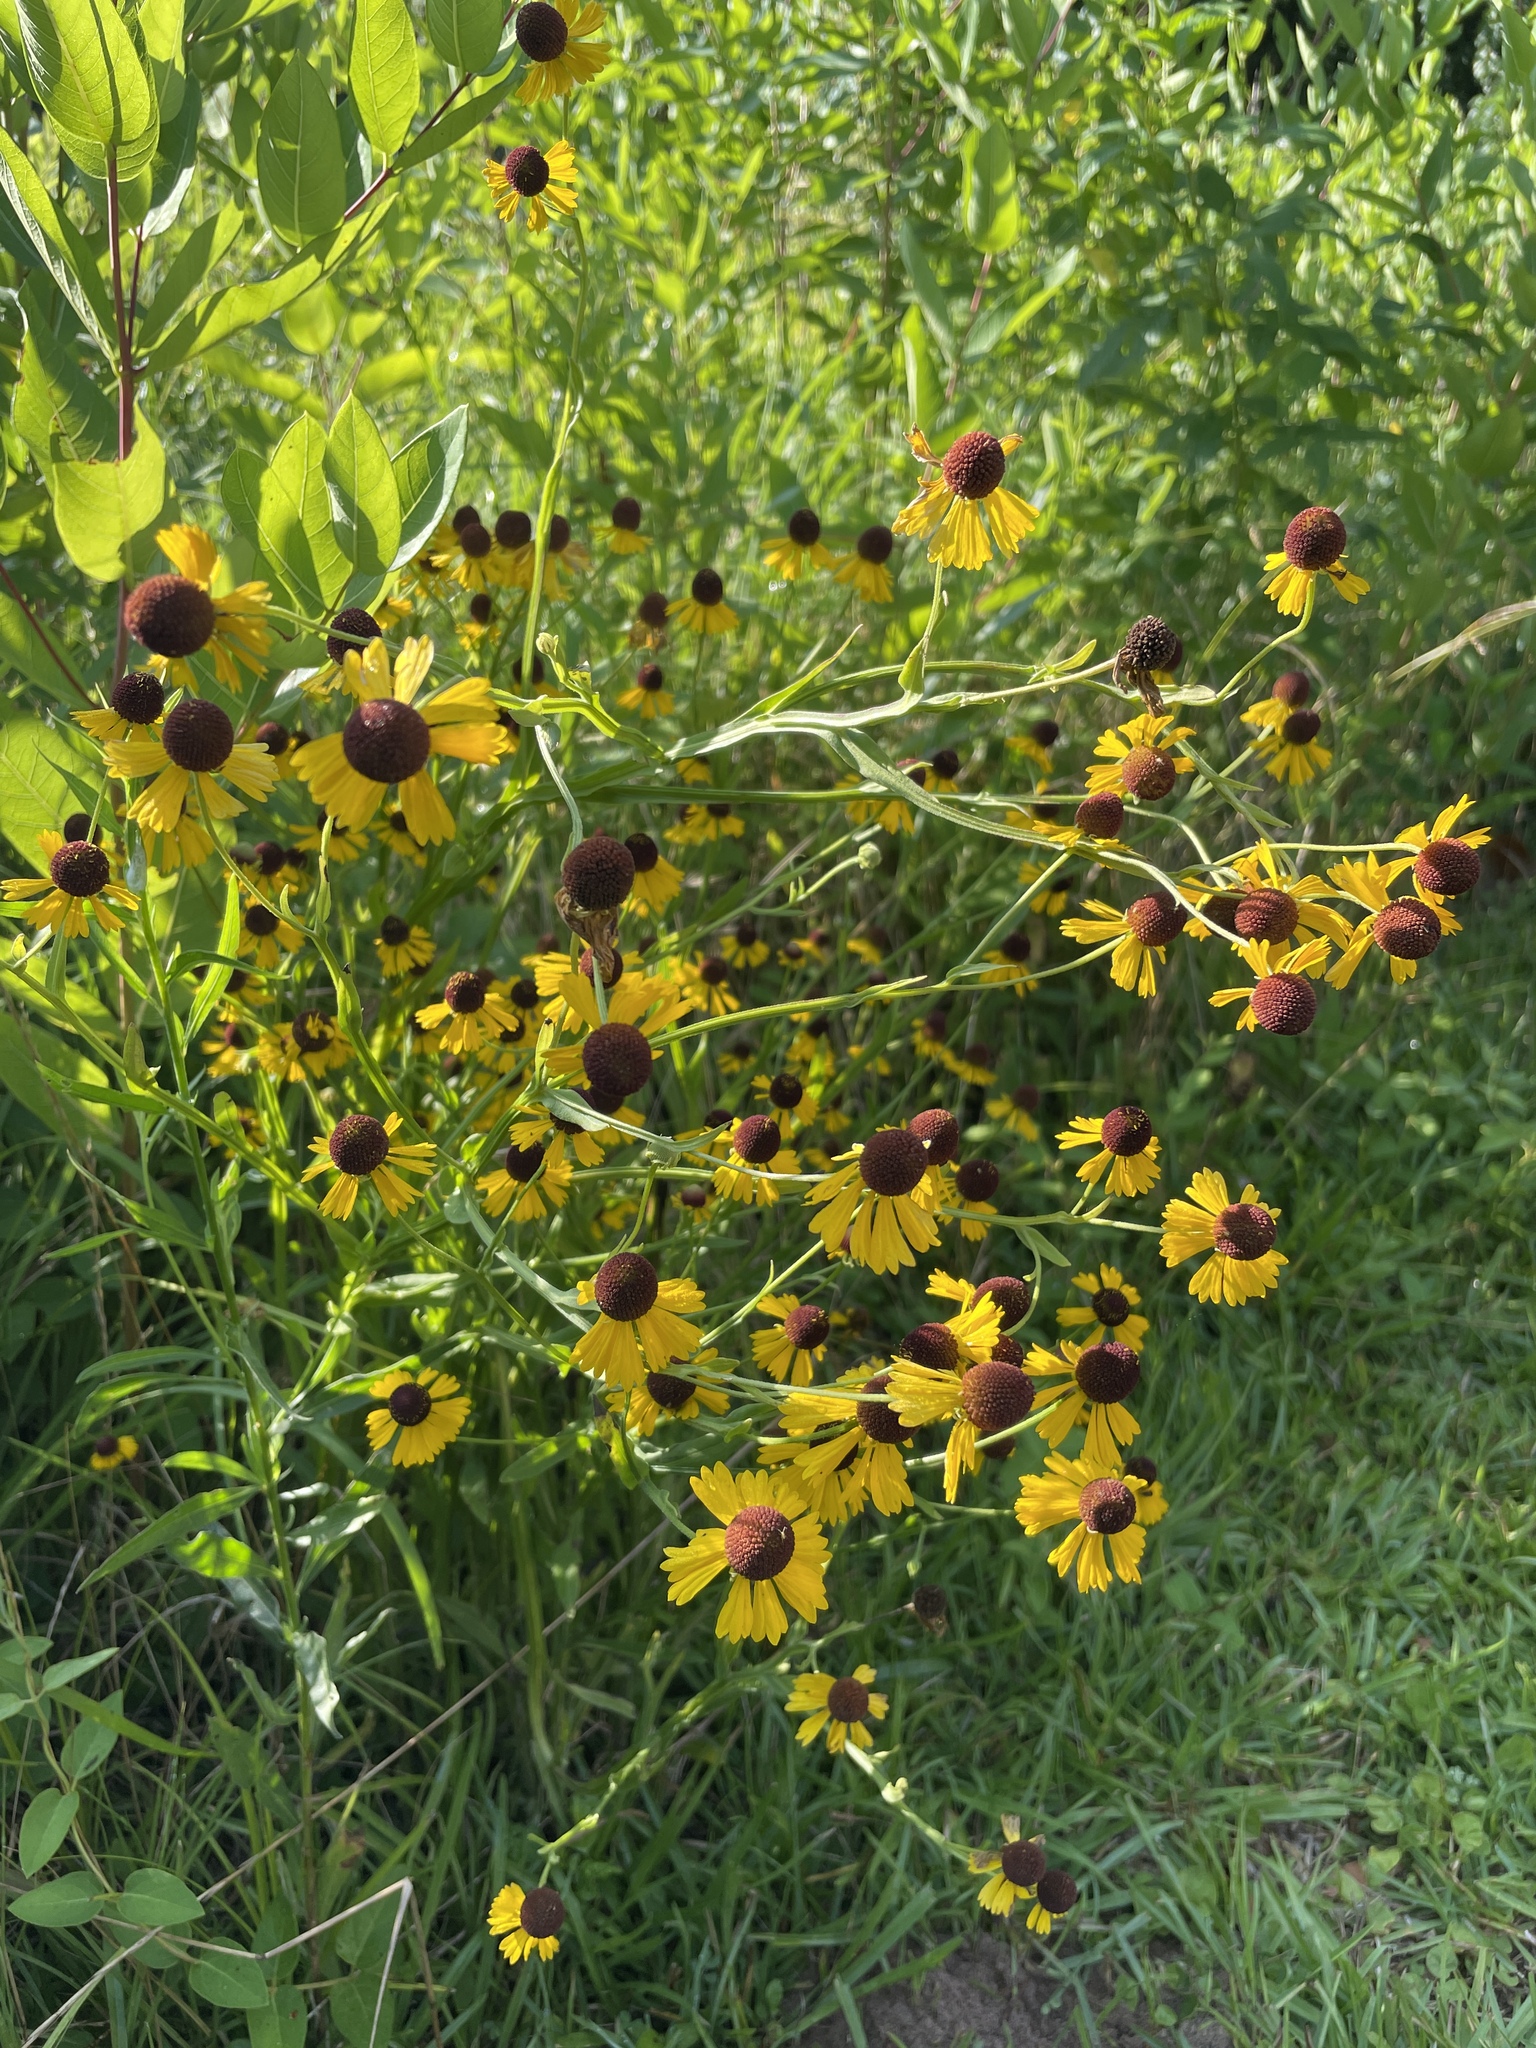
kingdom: Plantae
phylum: Tracheophyta
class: Magnoliopsida
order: Asterales
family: Asteraceae
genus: Helenium
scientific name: Helenium flexuosum
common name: Naked-flowered sneezeweed
